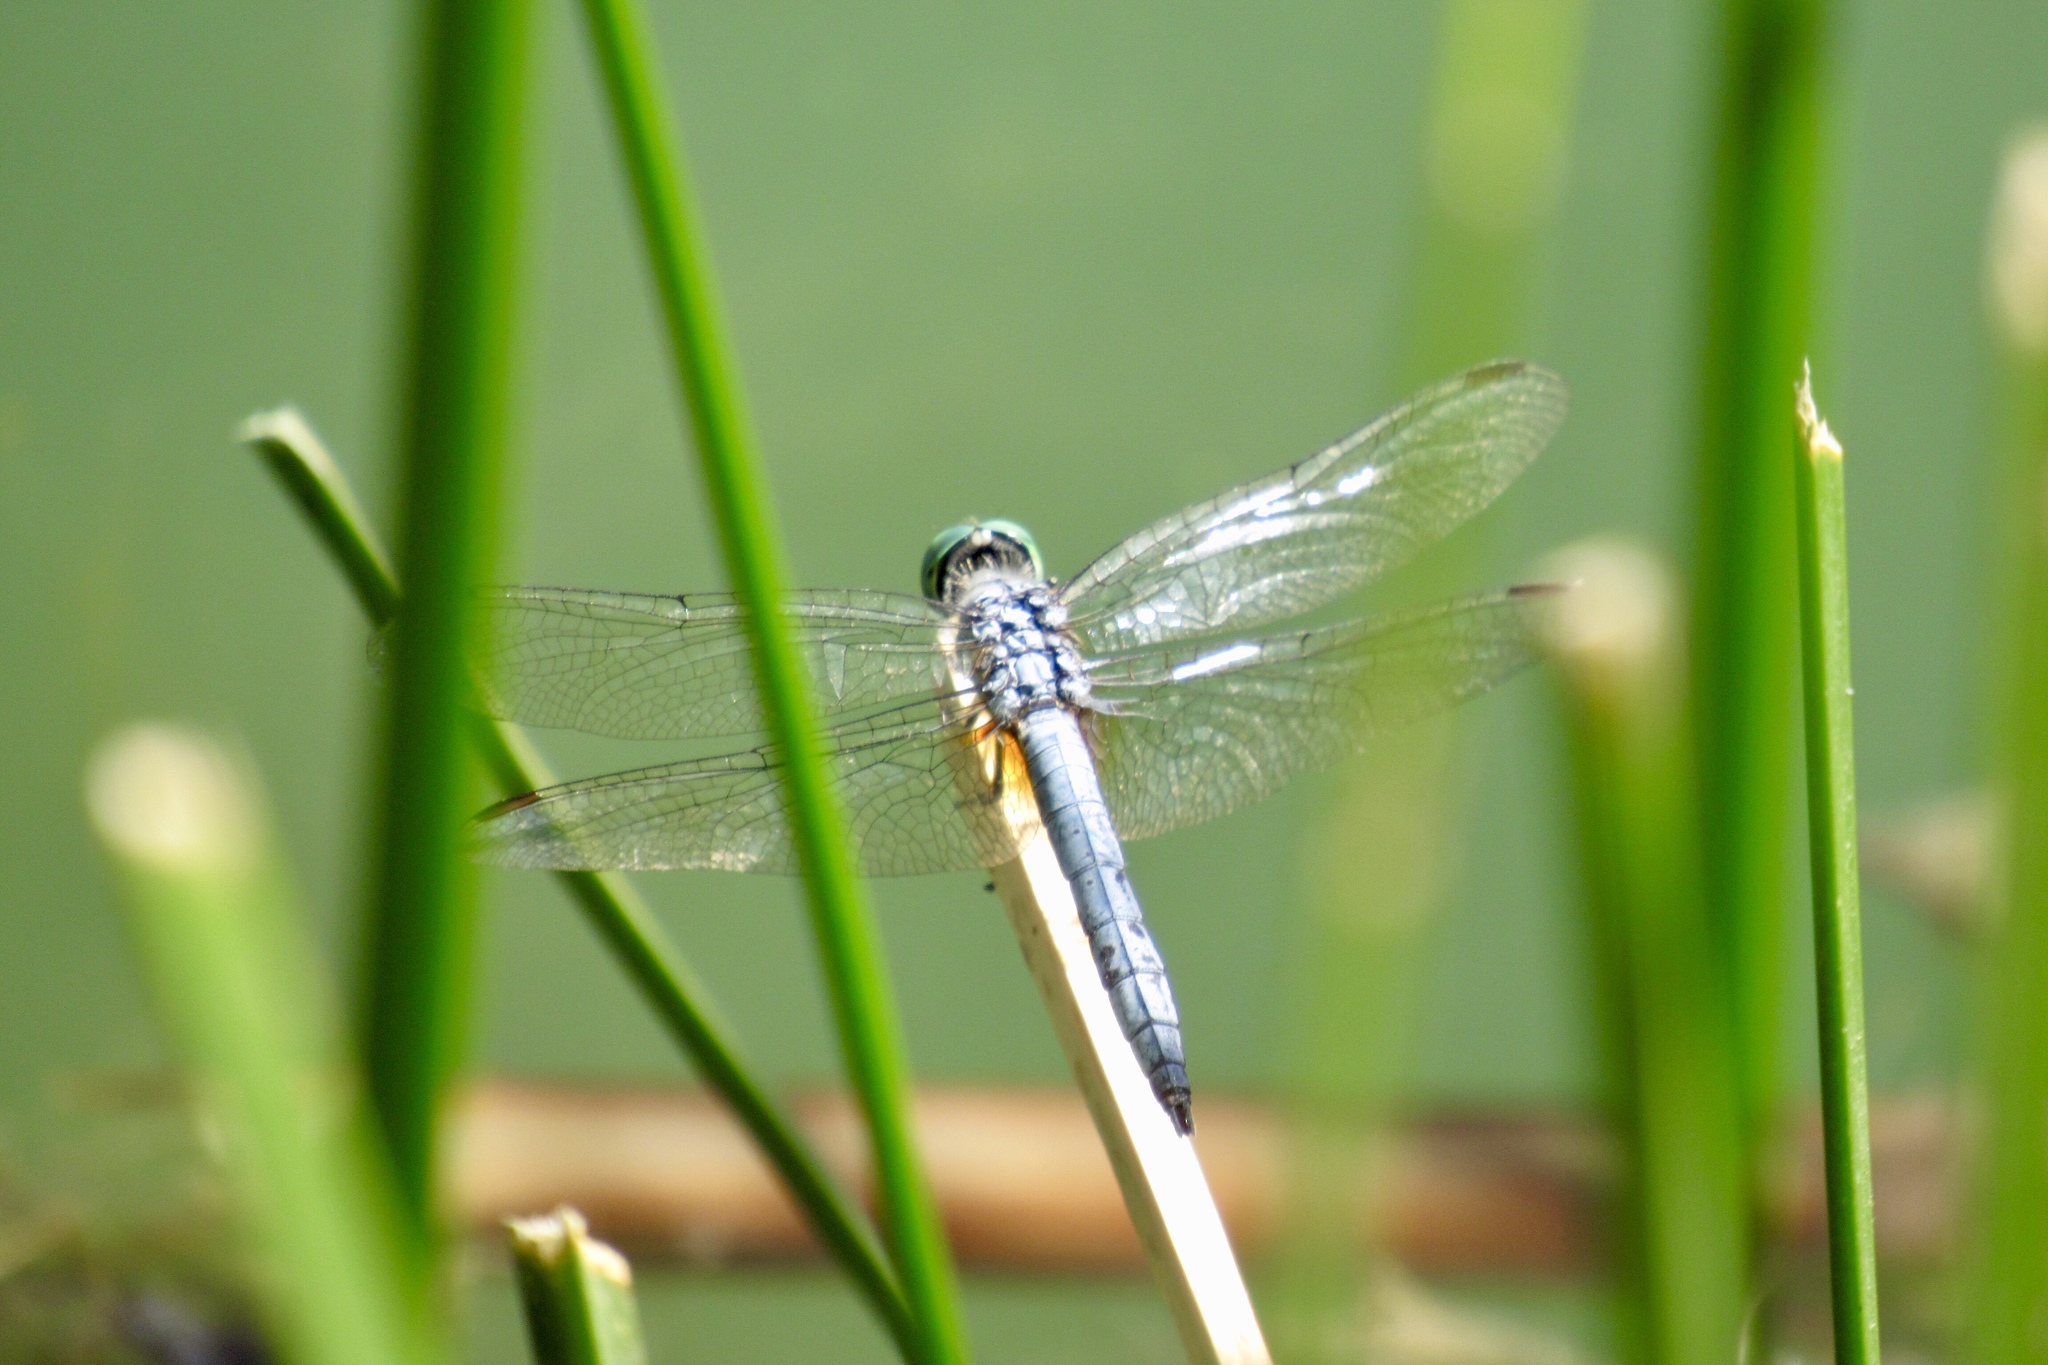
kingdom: Animalia
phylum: Arthropoda
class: Insecta
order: Odonata
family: Libellulidae
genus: Pachydiplax
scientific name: Pachydiplax longipennis
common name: Blue dasher
